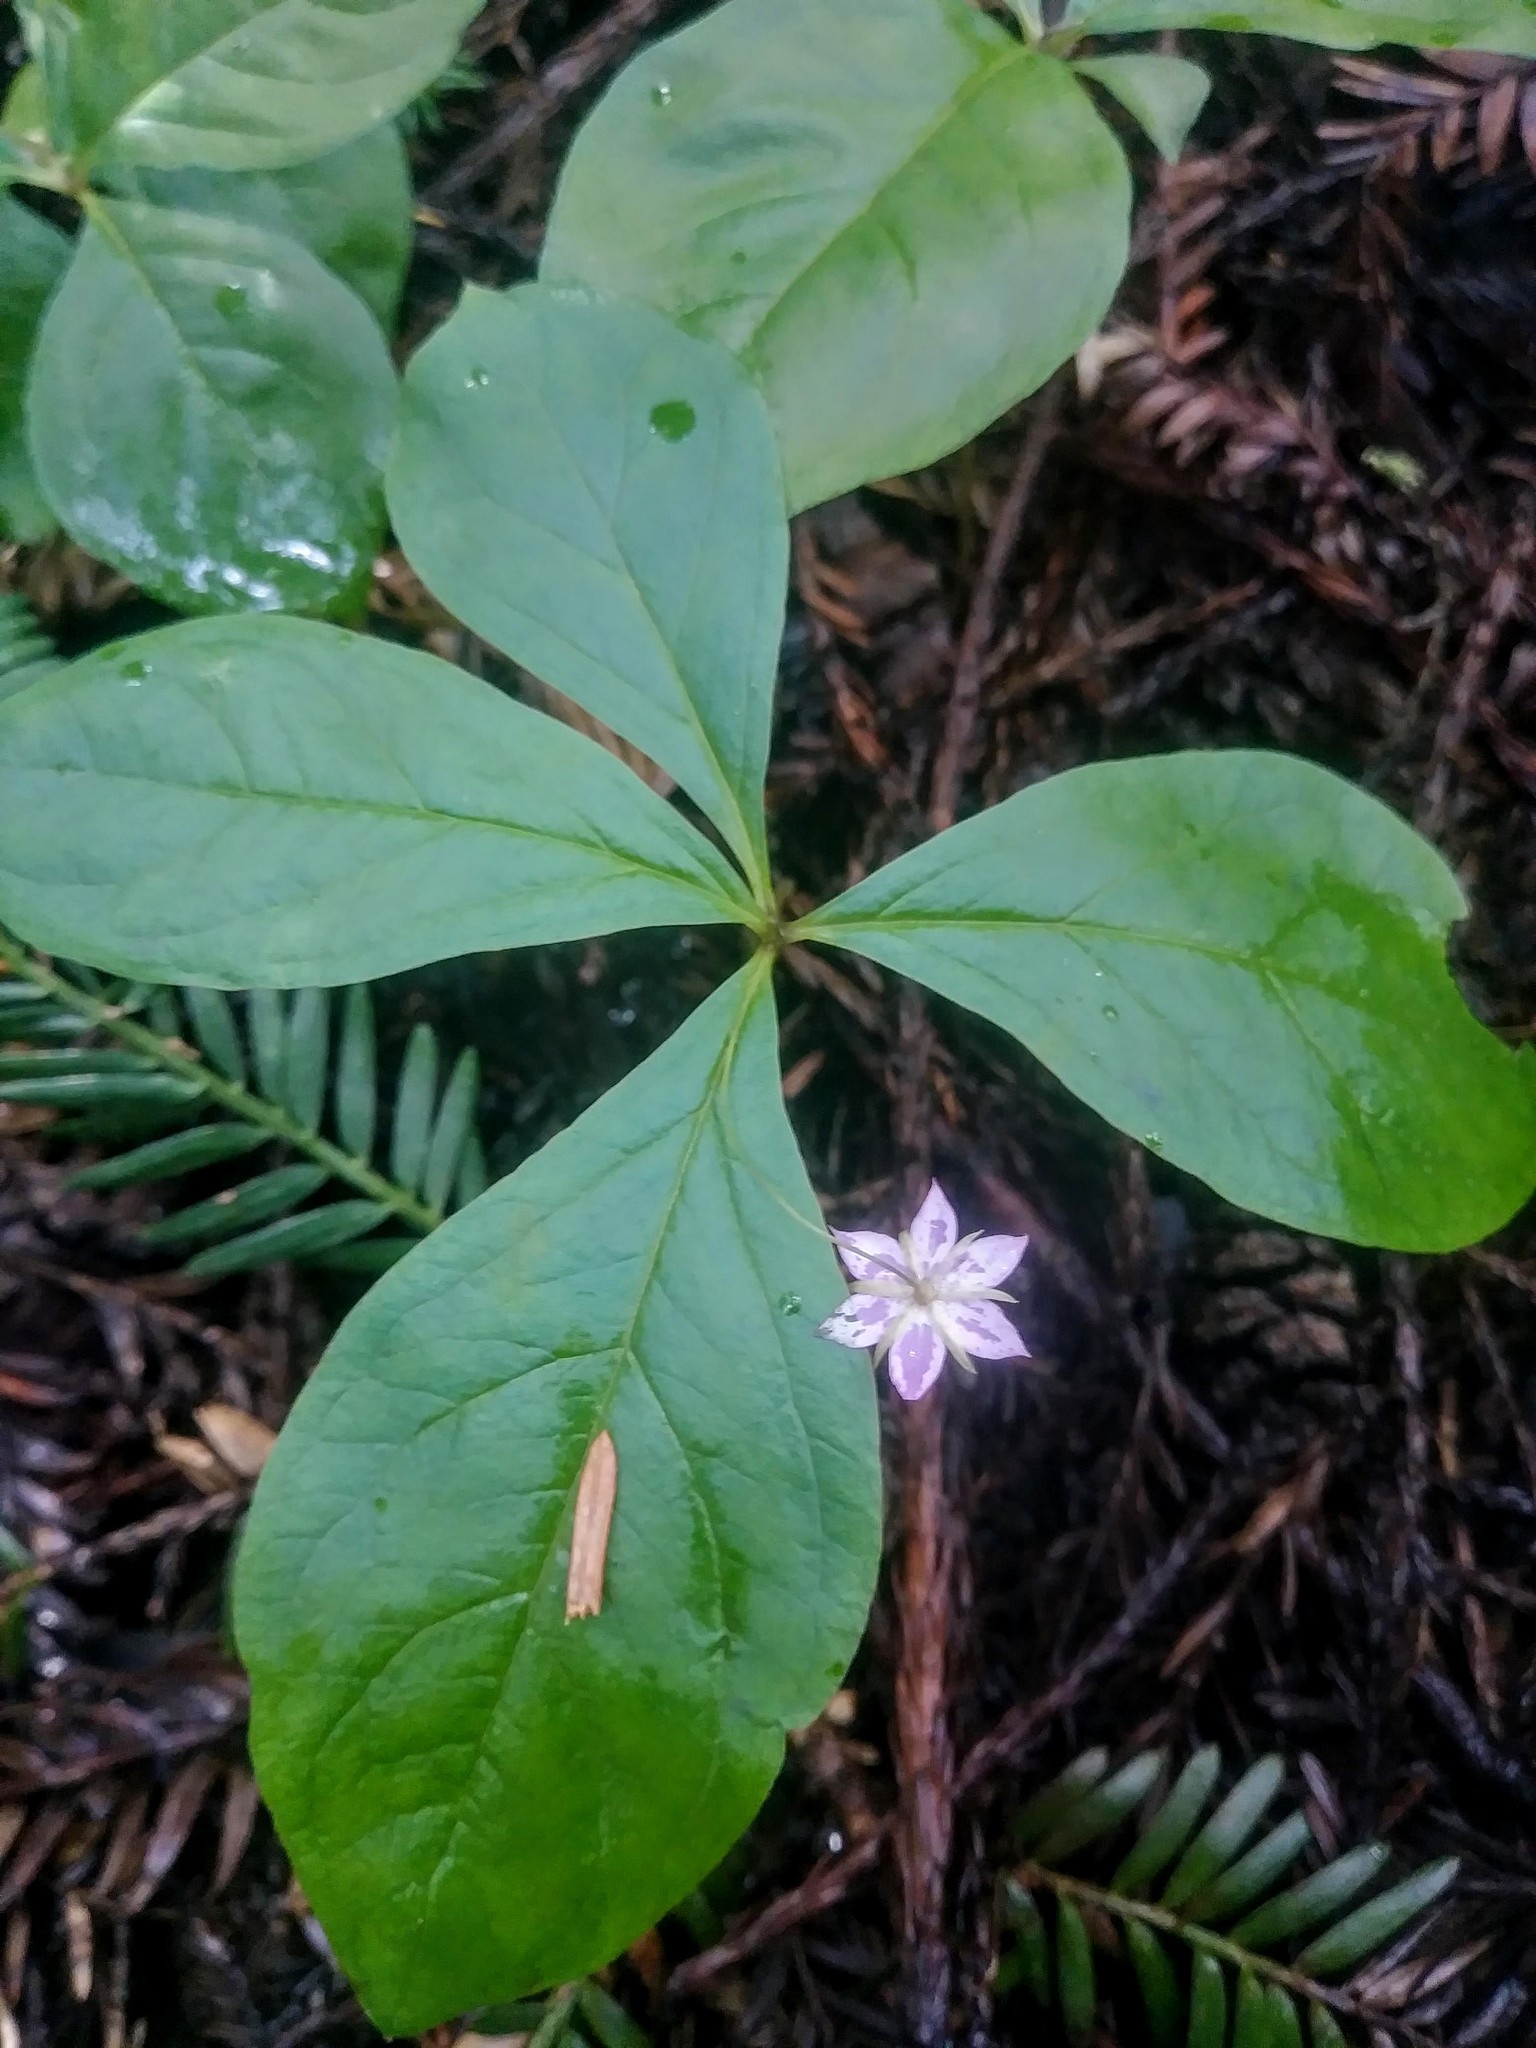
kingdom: Plantae
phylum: Tracheophyta
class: Magnoliopsida
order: Ericales
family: Primulaceae
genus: Lysimachia
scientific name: Lysimachia latifolia
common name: Pacific starflower
